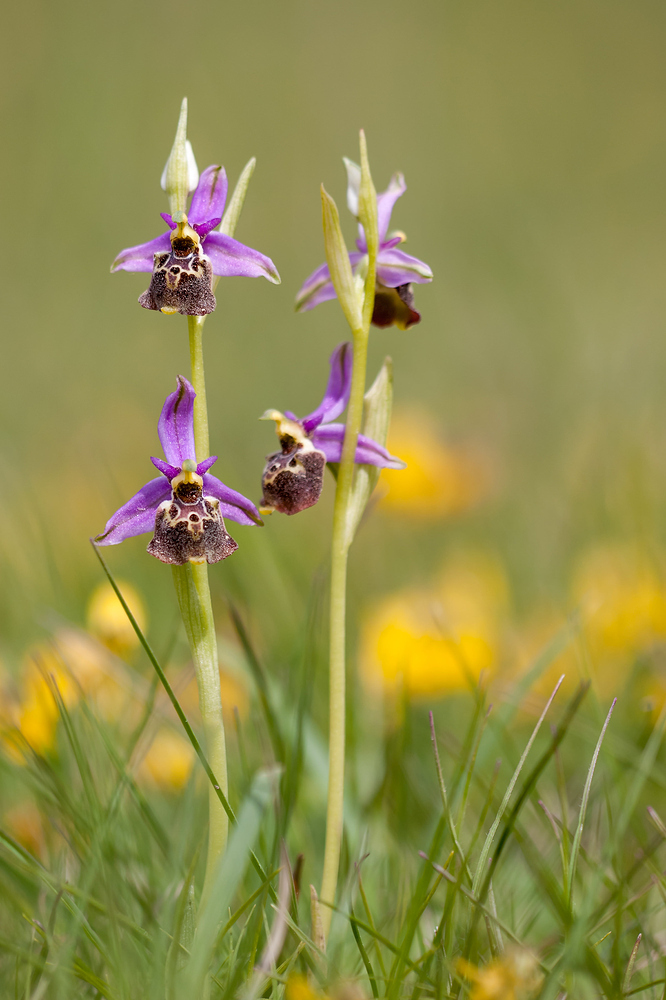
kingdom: Plantae
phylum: Tracheophyta
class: Liliopsida
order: Asparagales
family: Orchidaceae
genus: Ophrys
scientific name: Ophrys holosericea
